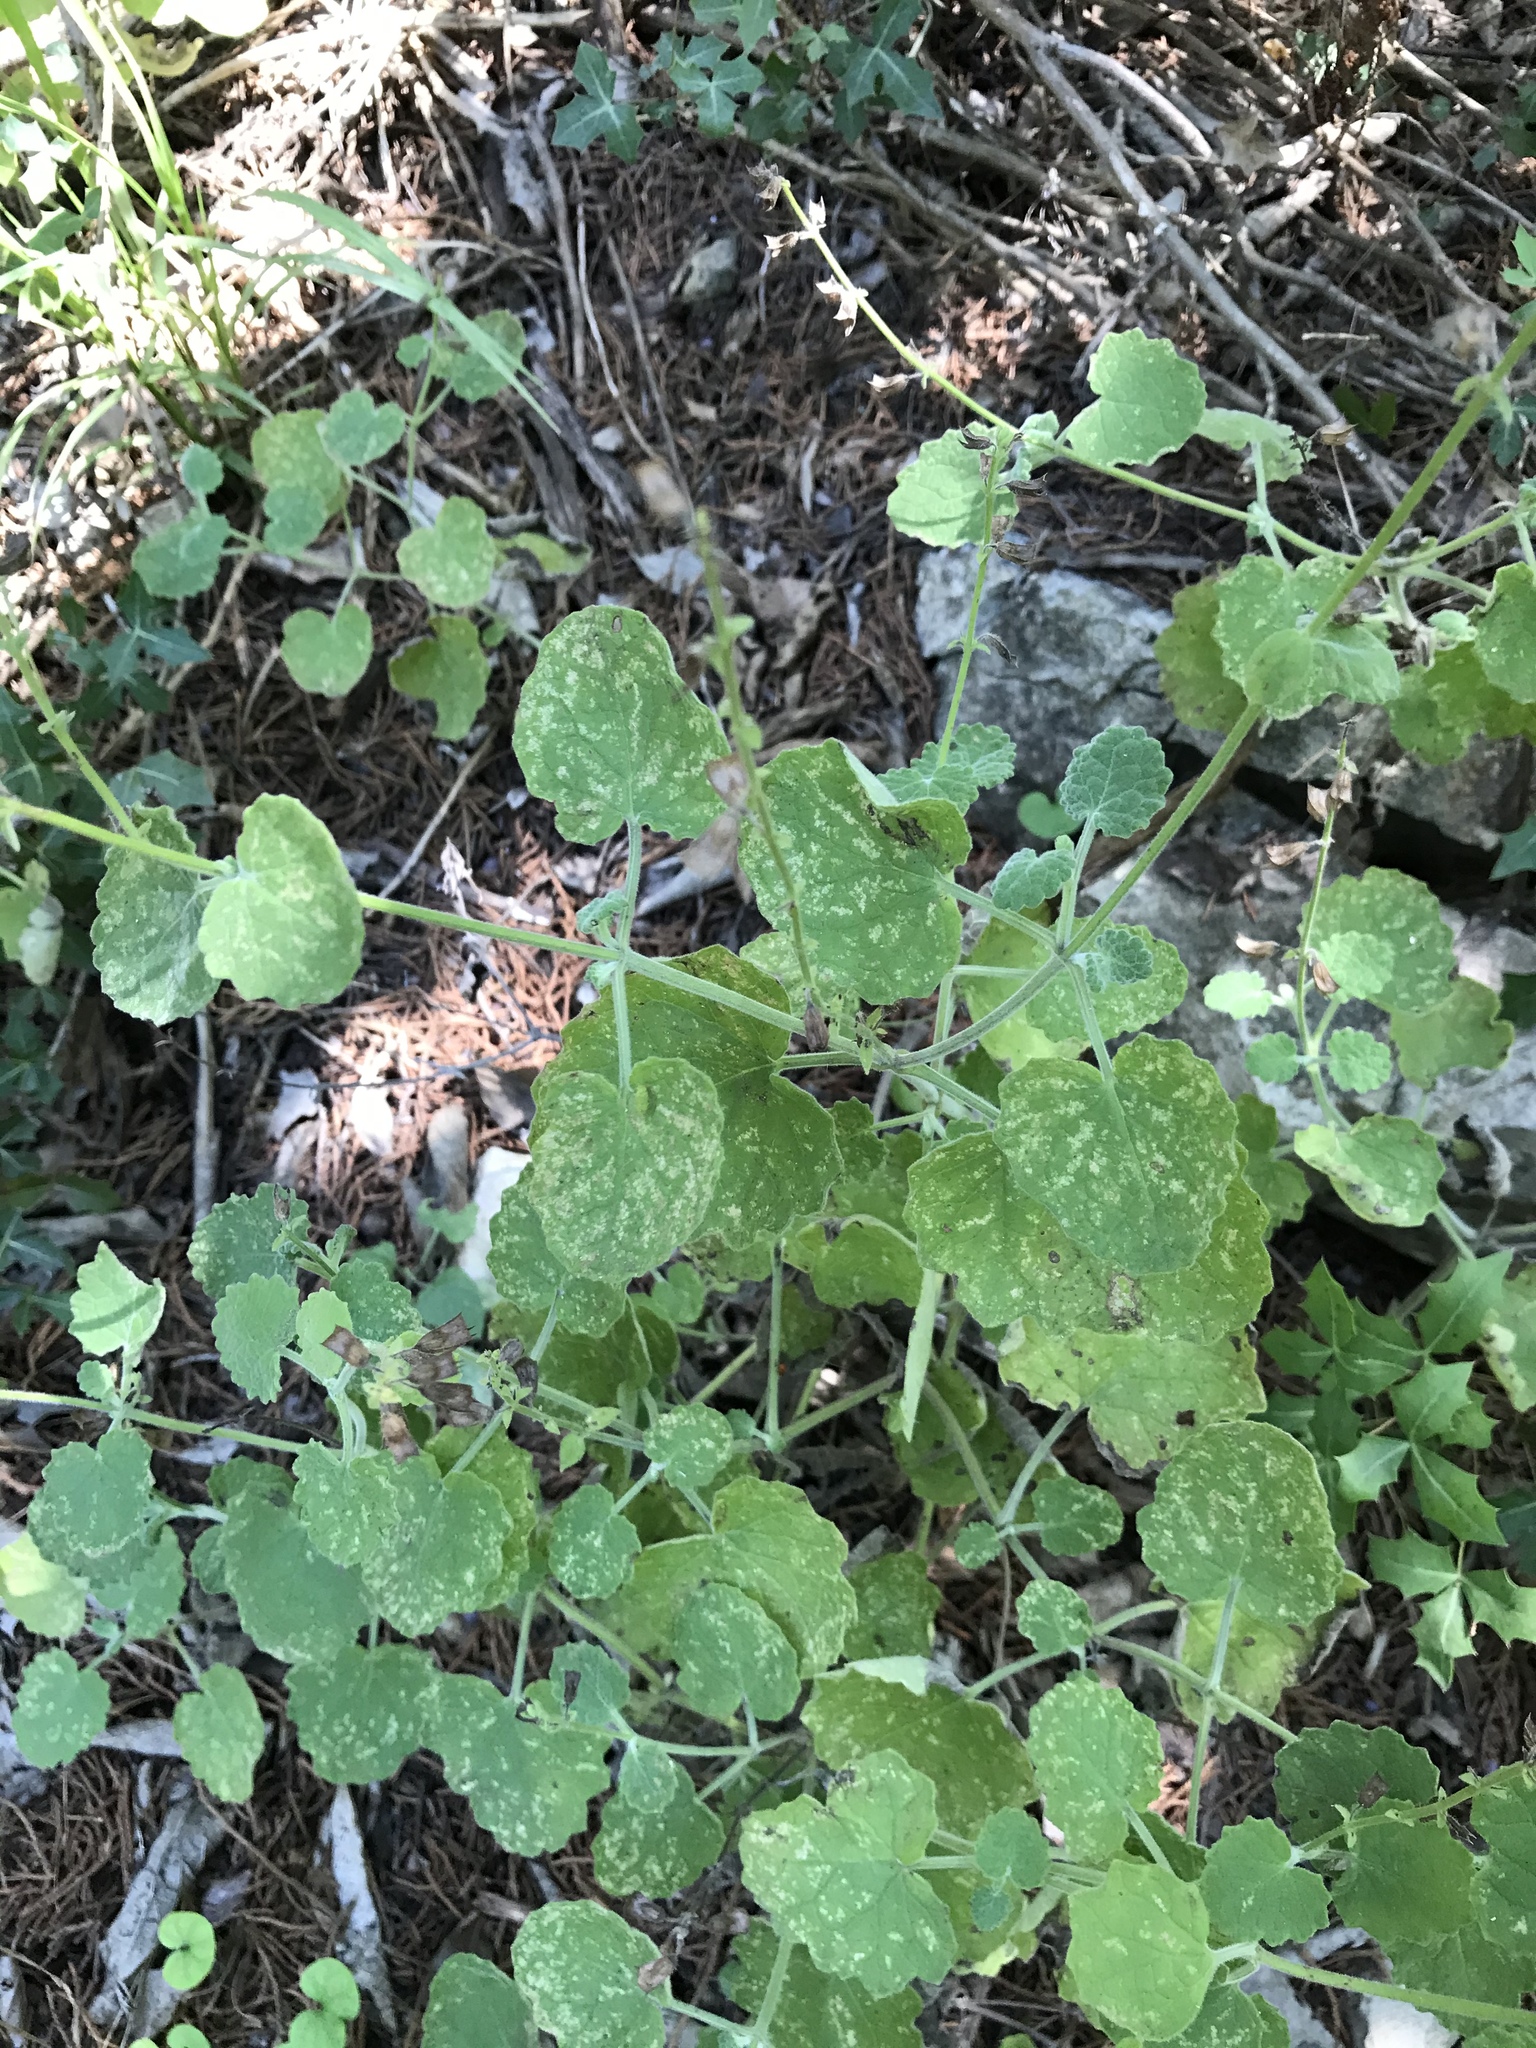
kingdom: Plantae
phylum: Tracheophyta
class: Magnoliopsida
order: Lamiales
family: Lamiaceae
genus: Salvia
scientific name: Salvia roemeriana
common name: Cedar sage
